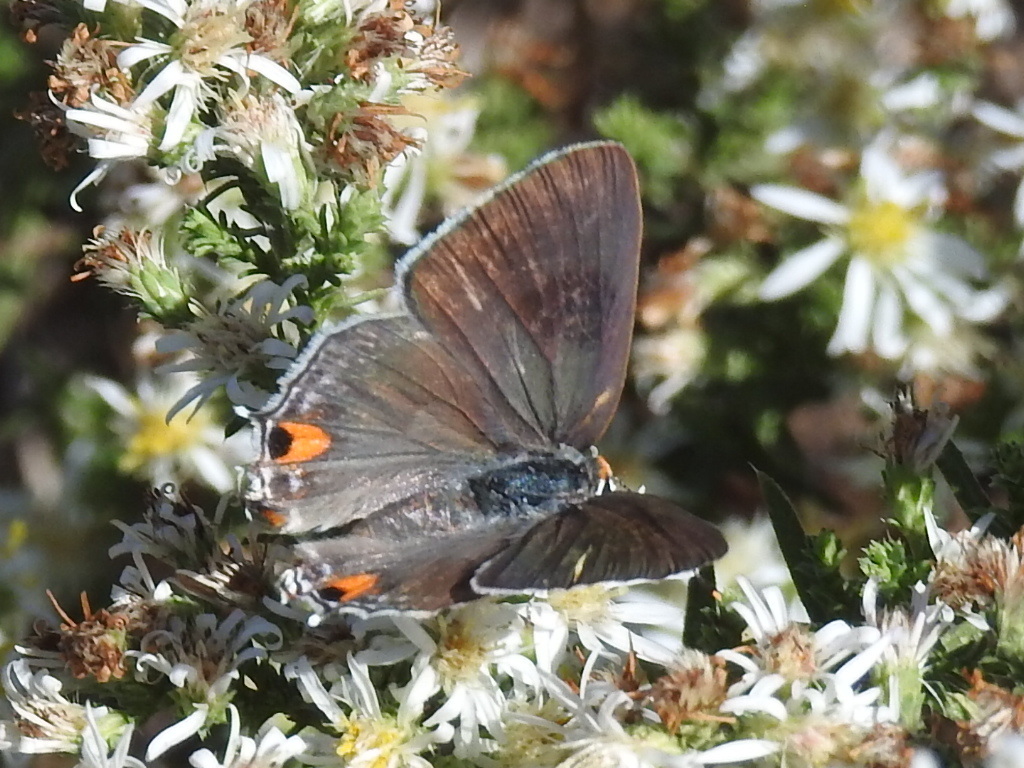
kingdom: Animalia
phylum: Arthropoda
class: Insecta
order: Lepidoptera
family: Lycaenidae
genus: Strymon
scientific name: Strymon melinus
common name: Gray hairstreak
